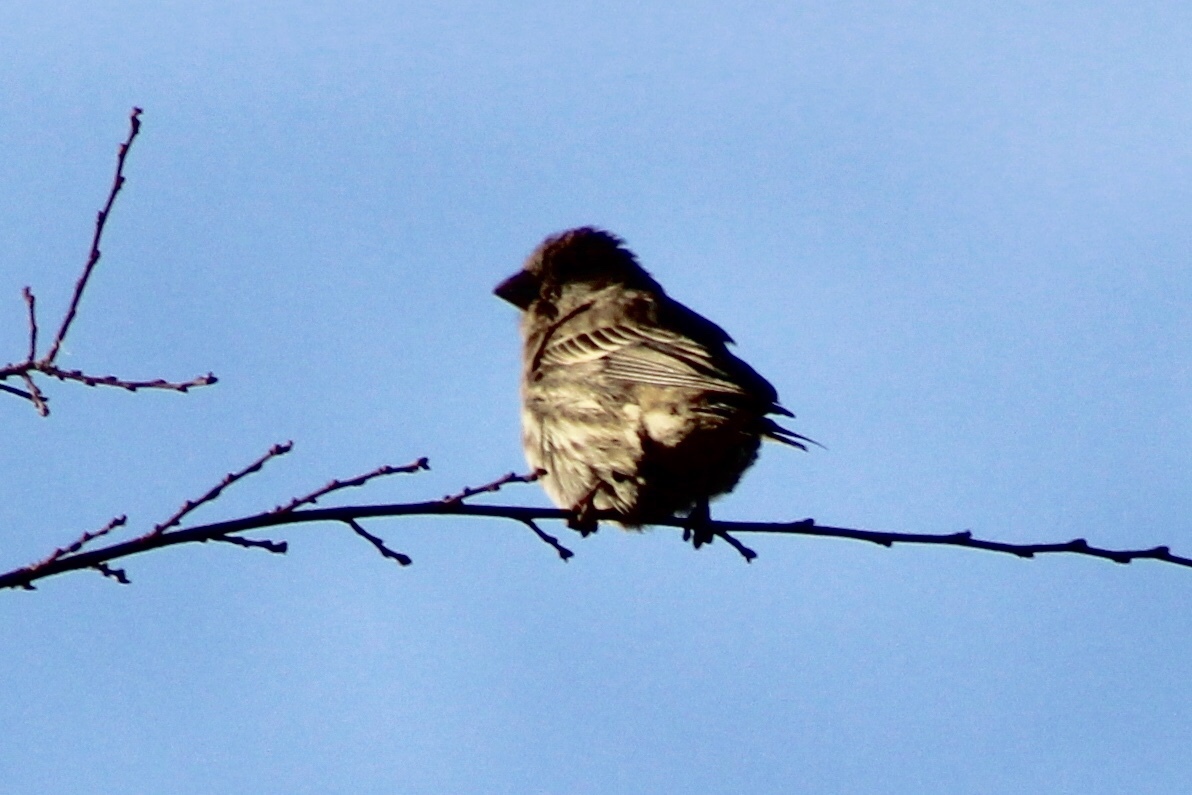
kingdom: Animalia
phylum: Chordata
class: Aves
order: Passeriformes
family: Fringillidae
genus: Haemorhous
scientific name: Haemorhous mexicanus
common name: House finch
